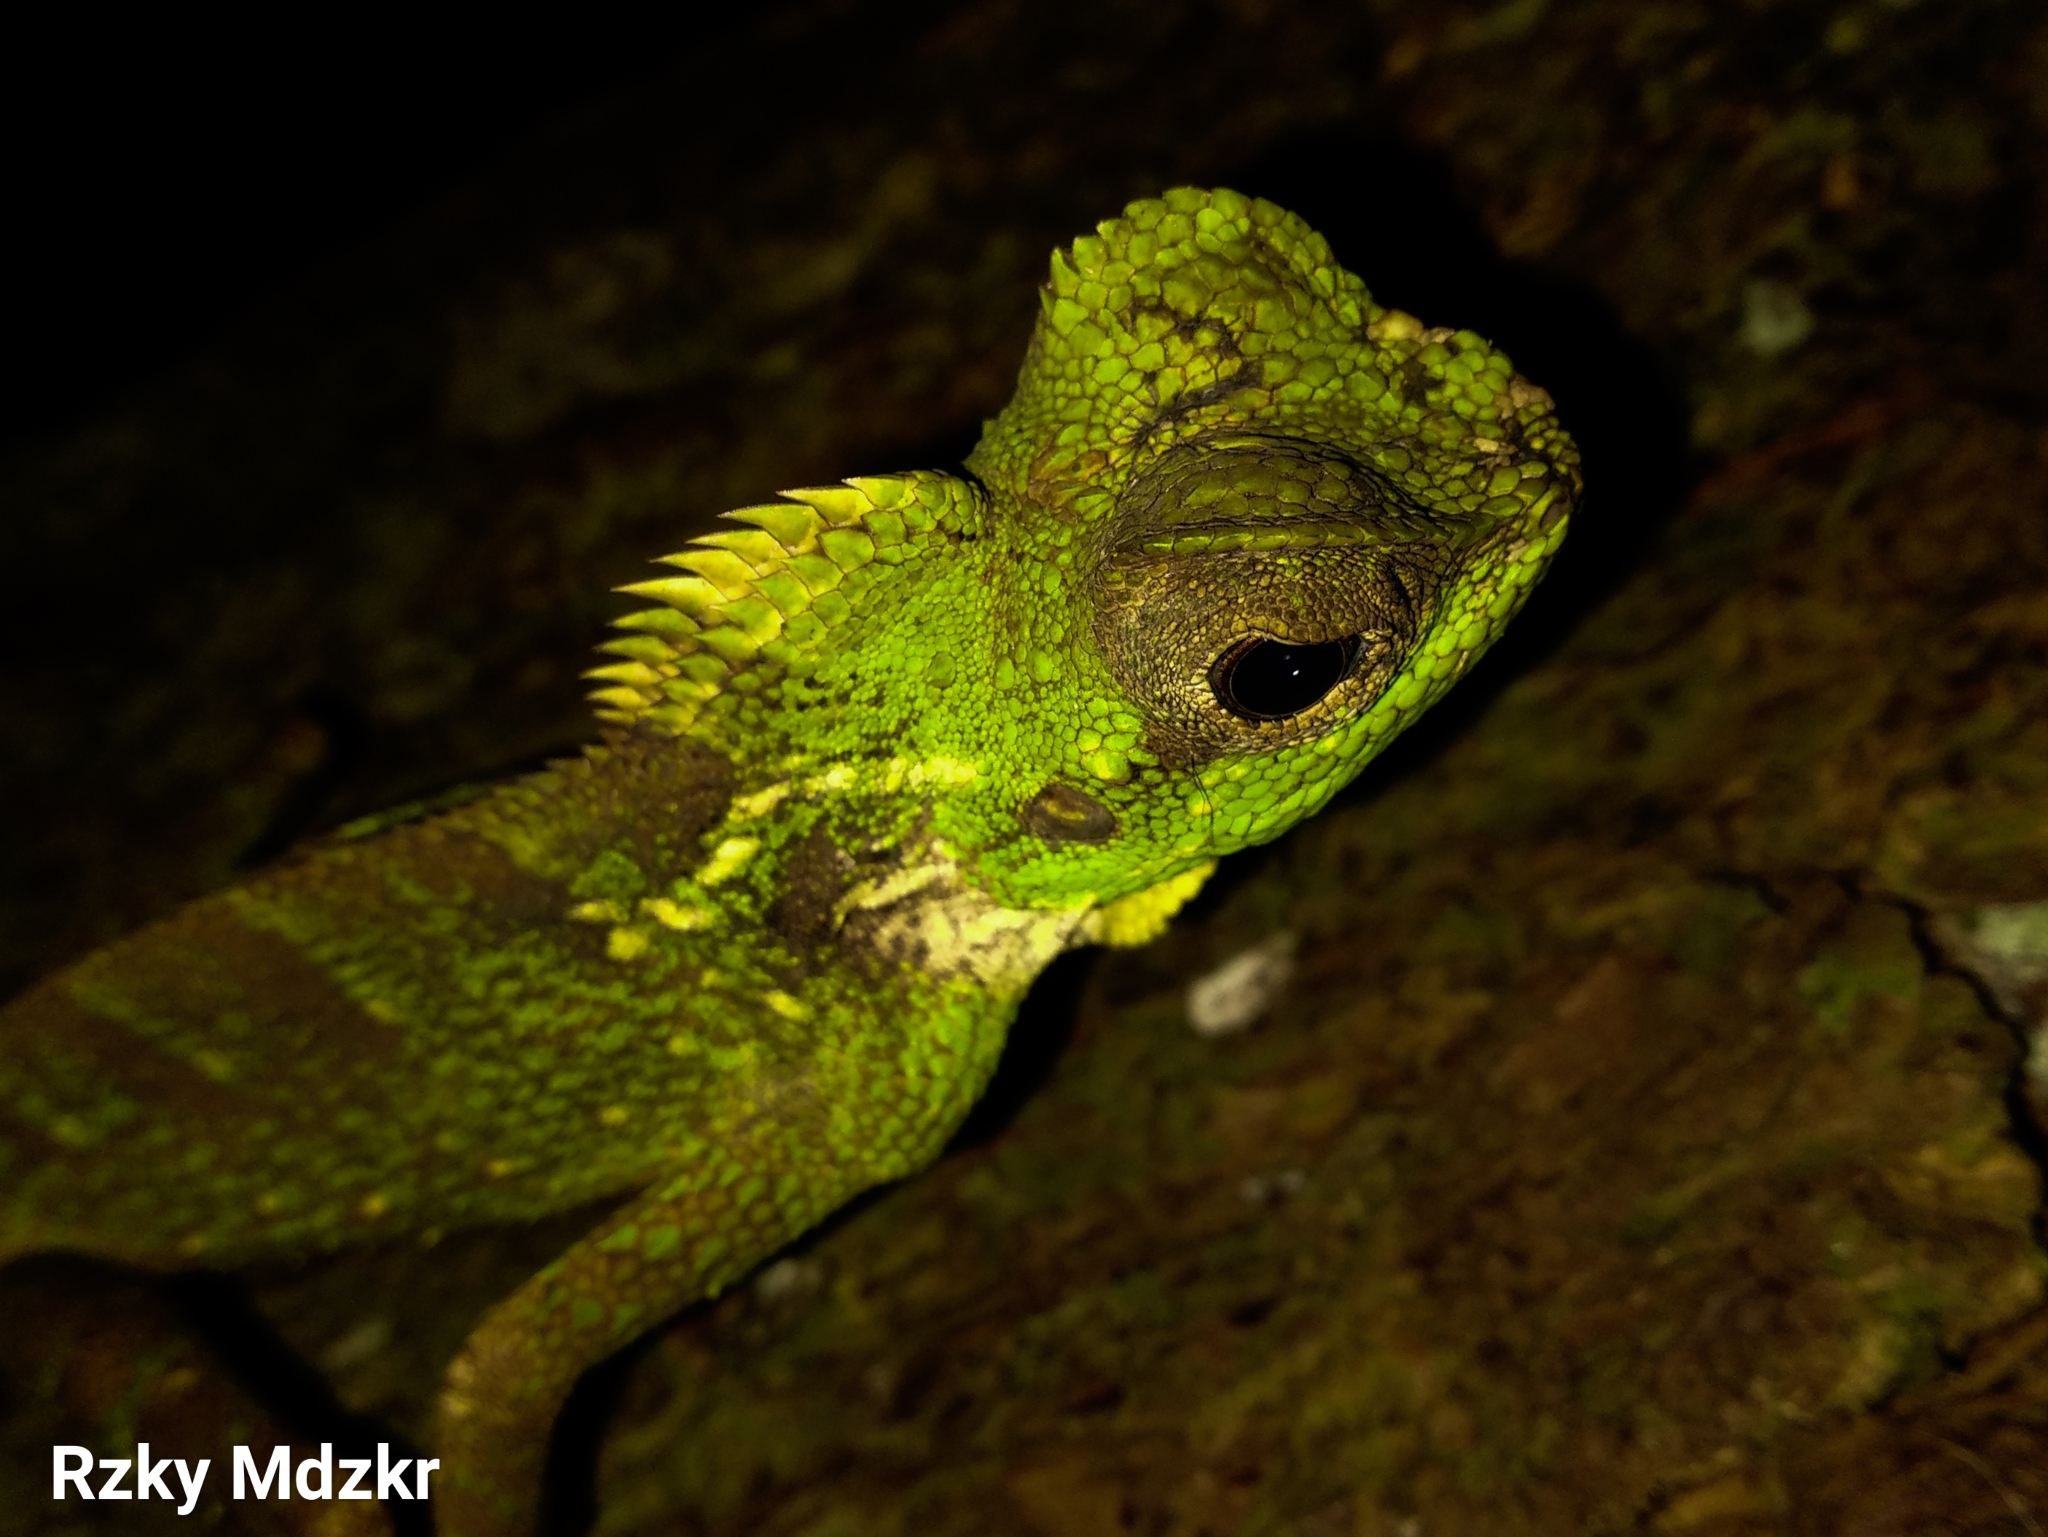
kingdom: Animalia
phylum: Chordata
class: Squamata
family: Agamidae
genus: Gonocephalus
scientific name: Gonocephalus kuhlii
